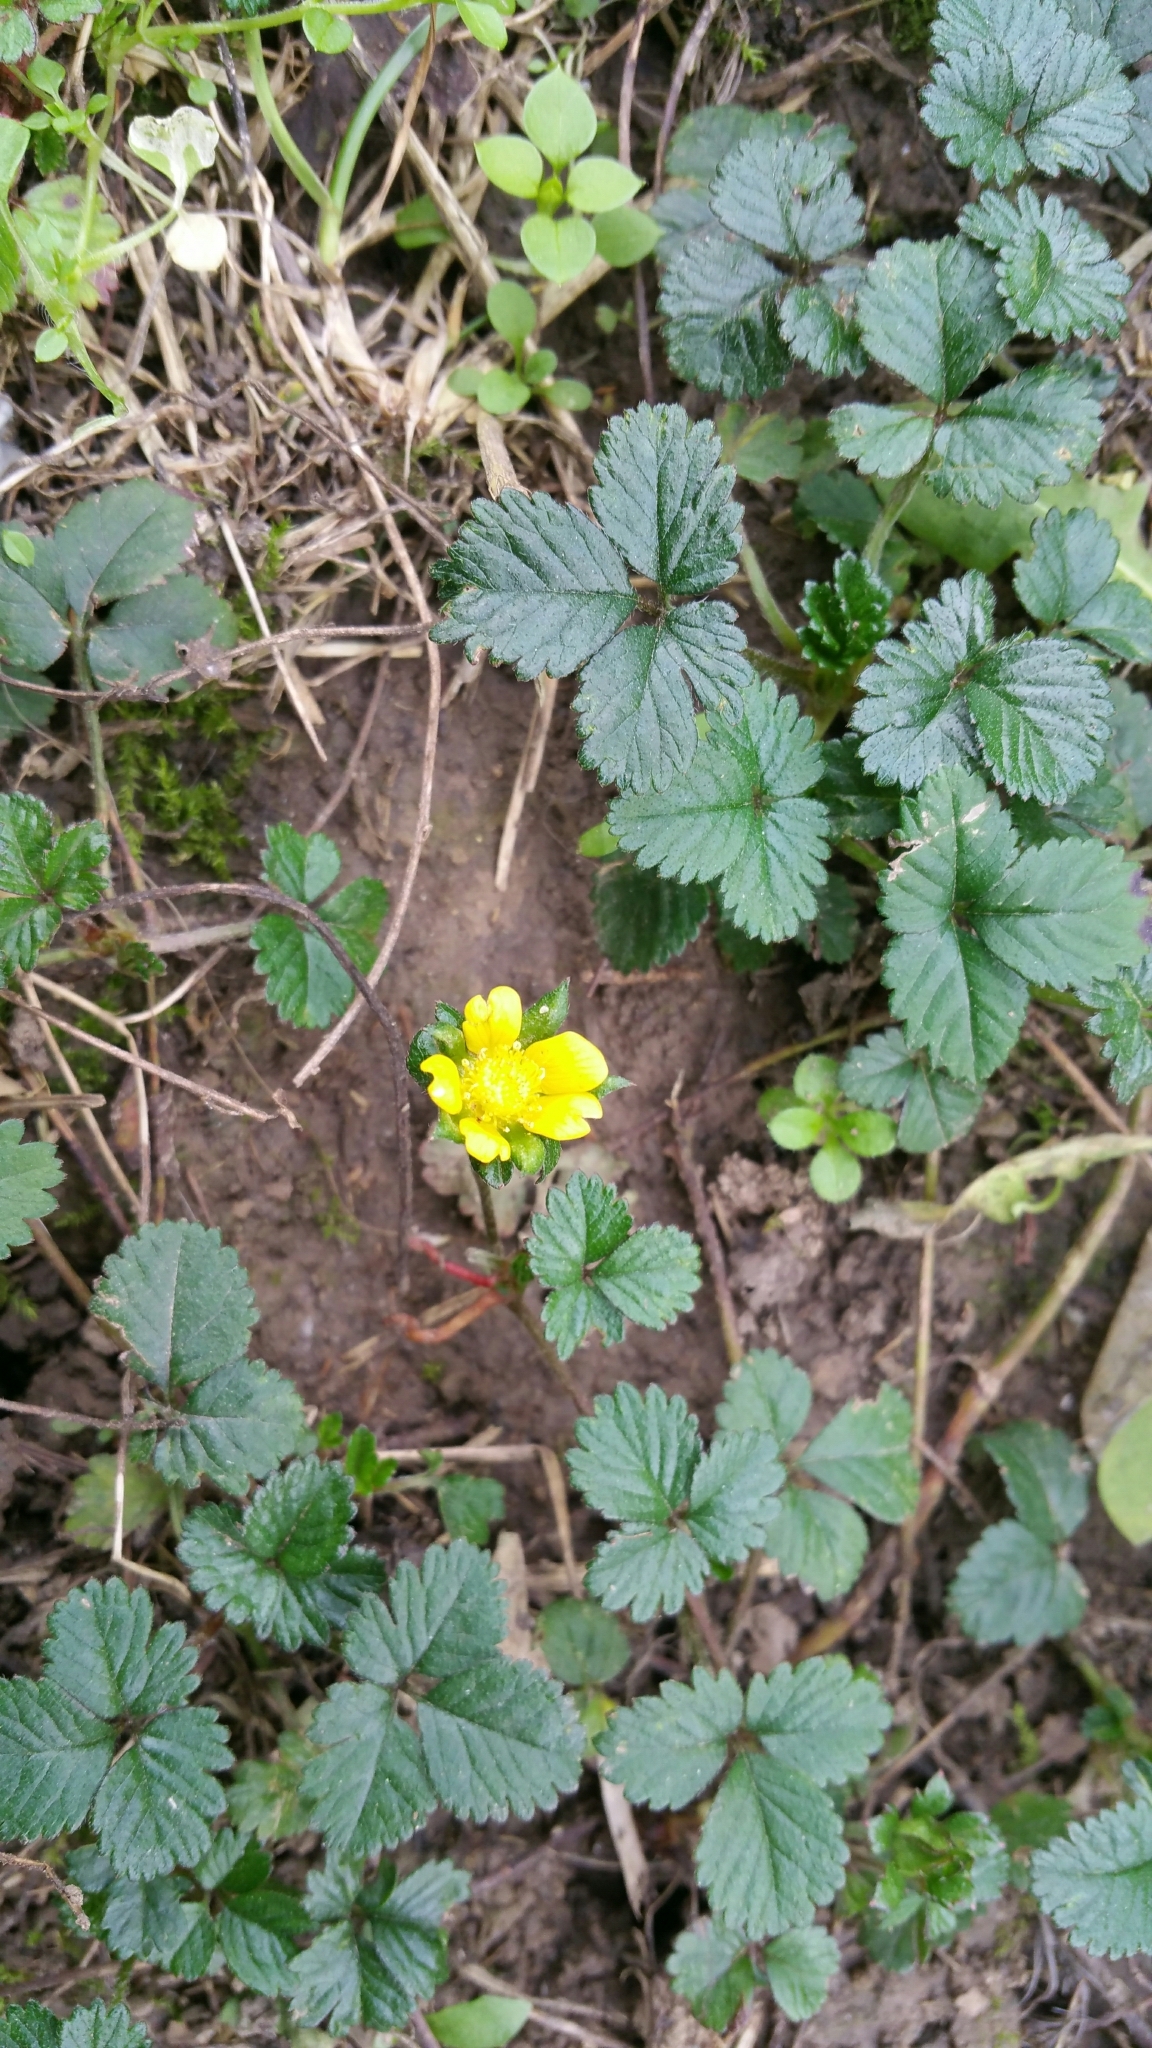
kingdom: Plantae
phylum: Tracheophyta
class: Magnoliopsida
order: Rosales
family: Rosaceae
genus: Potentilla
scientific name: Potentilla indica
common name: Yellow-flowered strawberry
